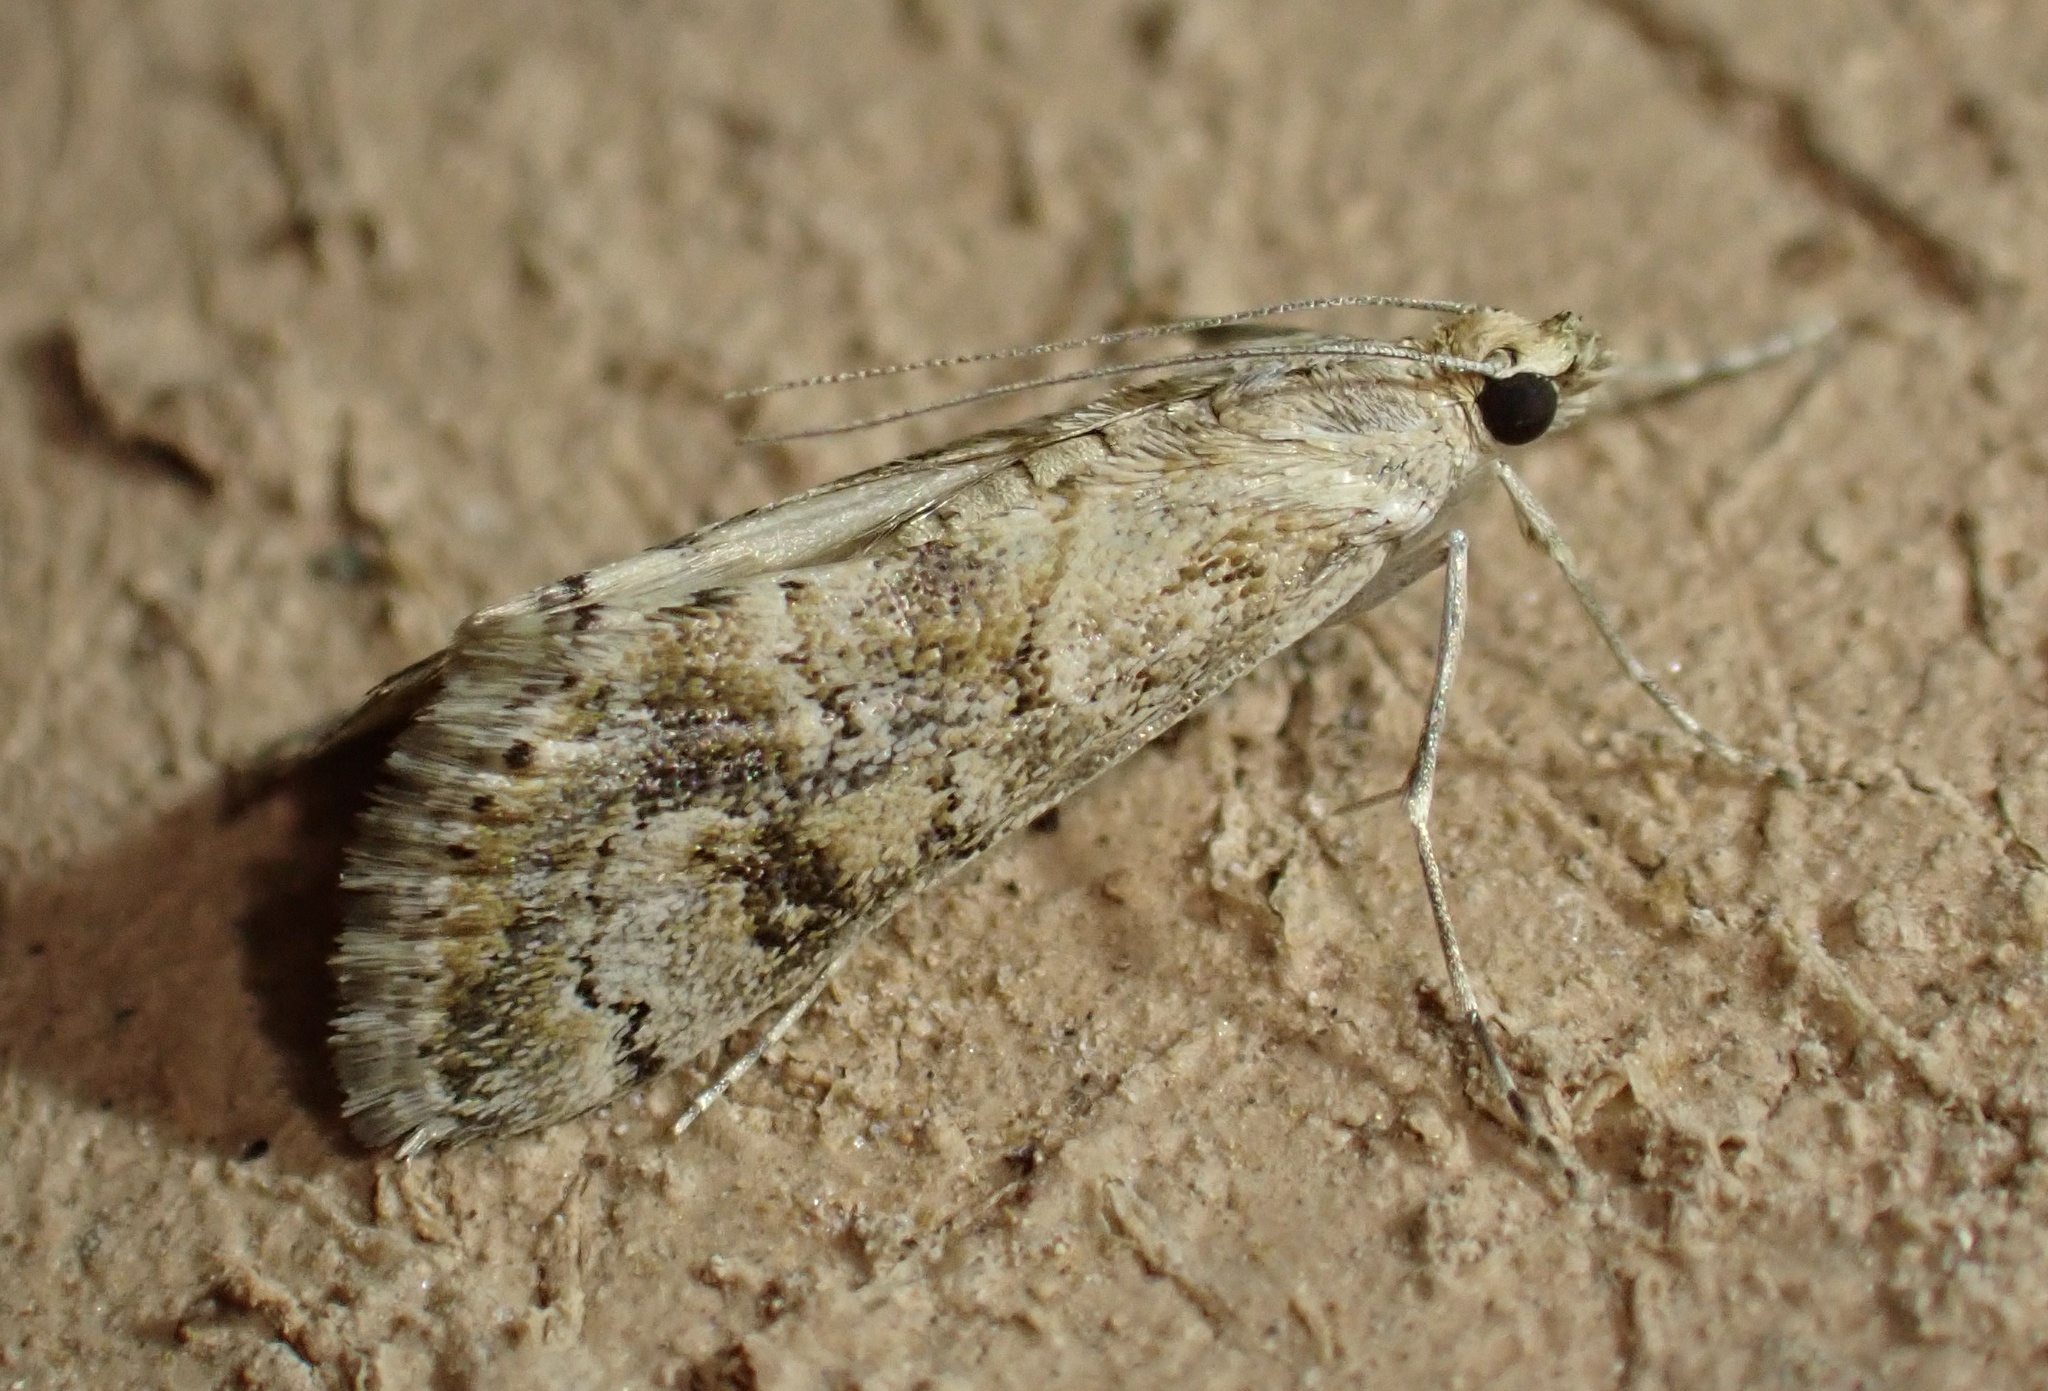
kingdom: Animalia
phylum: Arthropoda
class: Insecta
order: Lepidoptera
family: Crambidae
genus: Cornifrons
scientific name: Cornifrons ulceratalis
